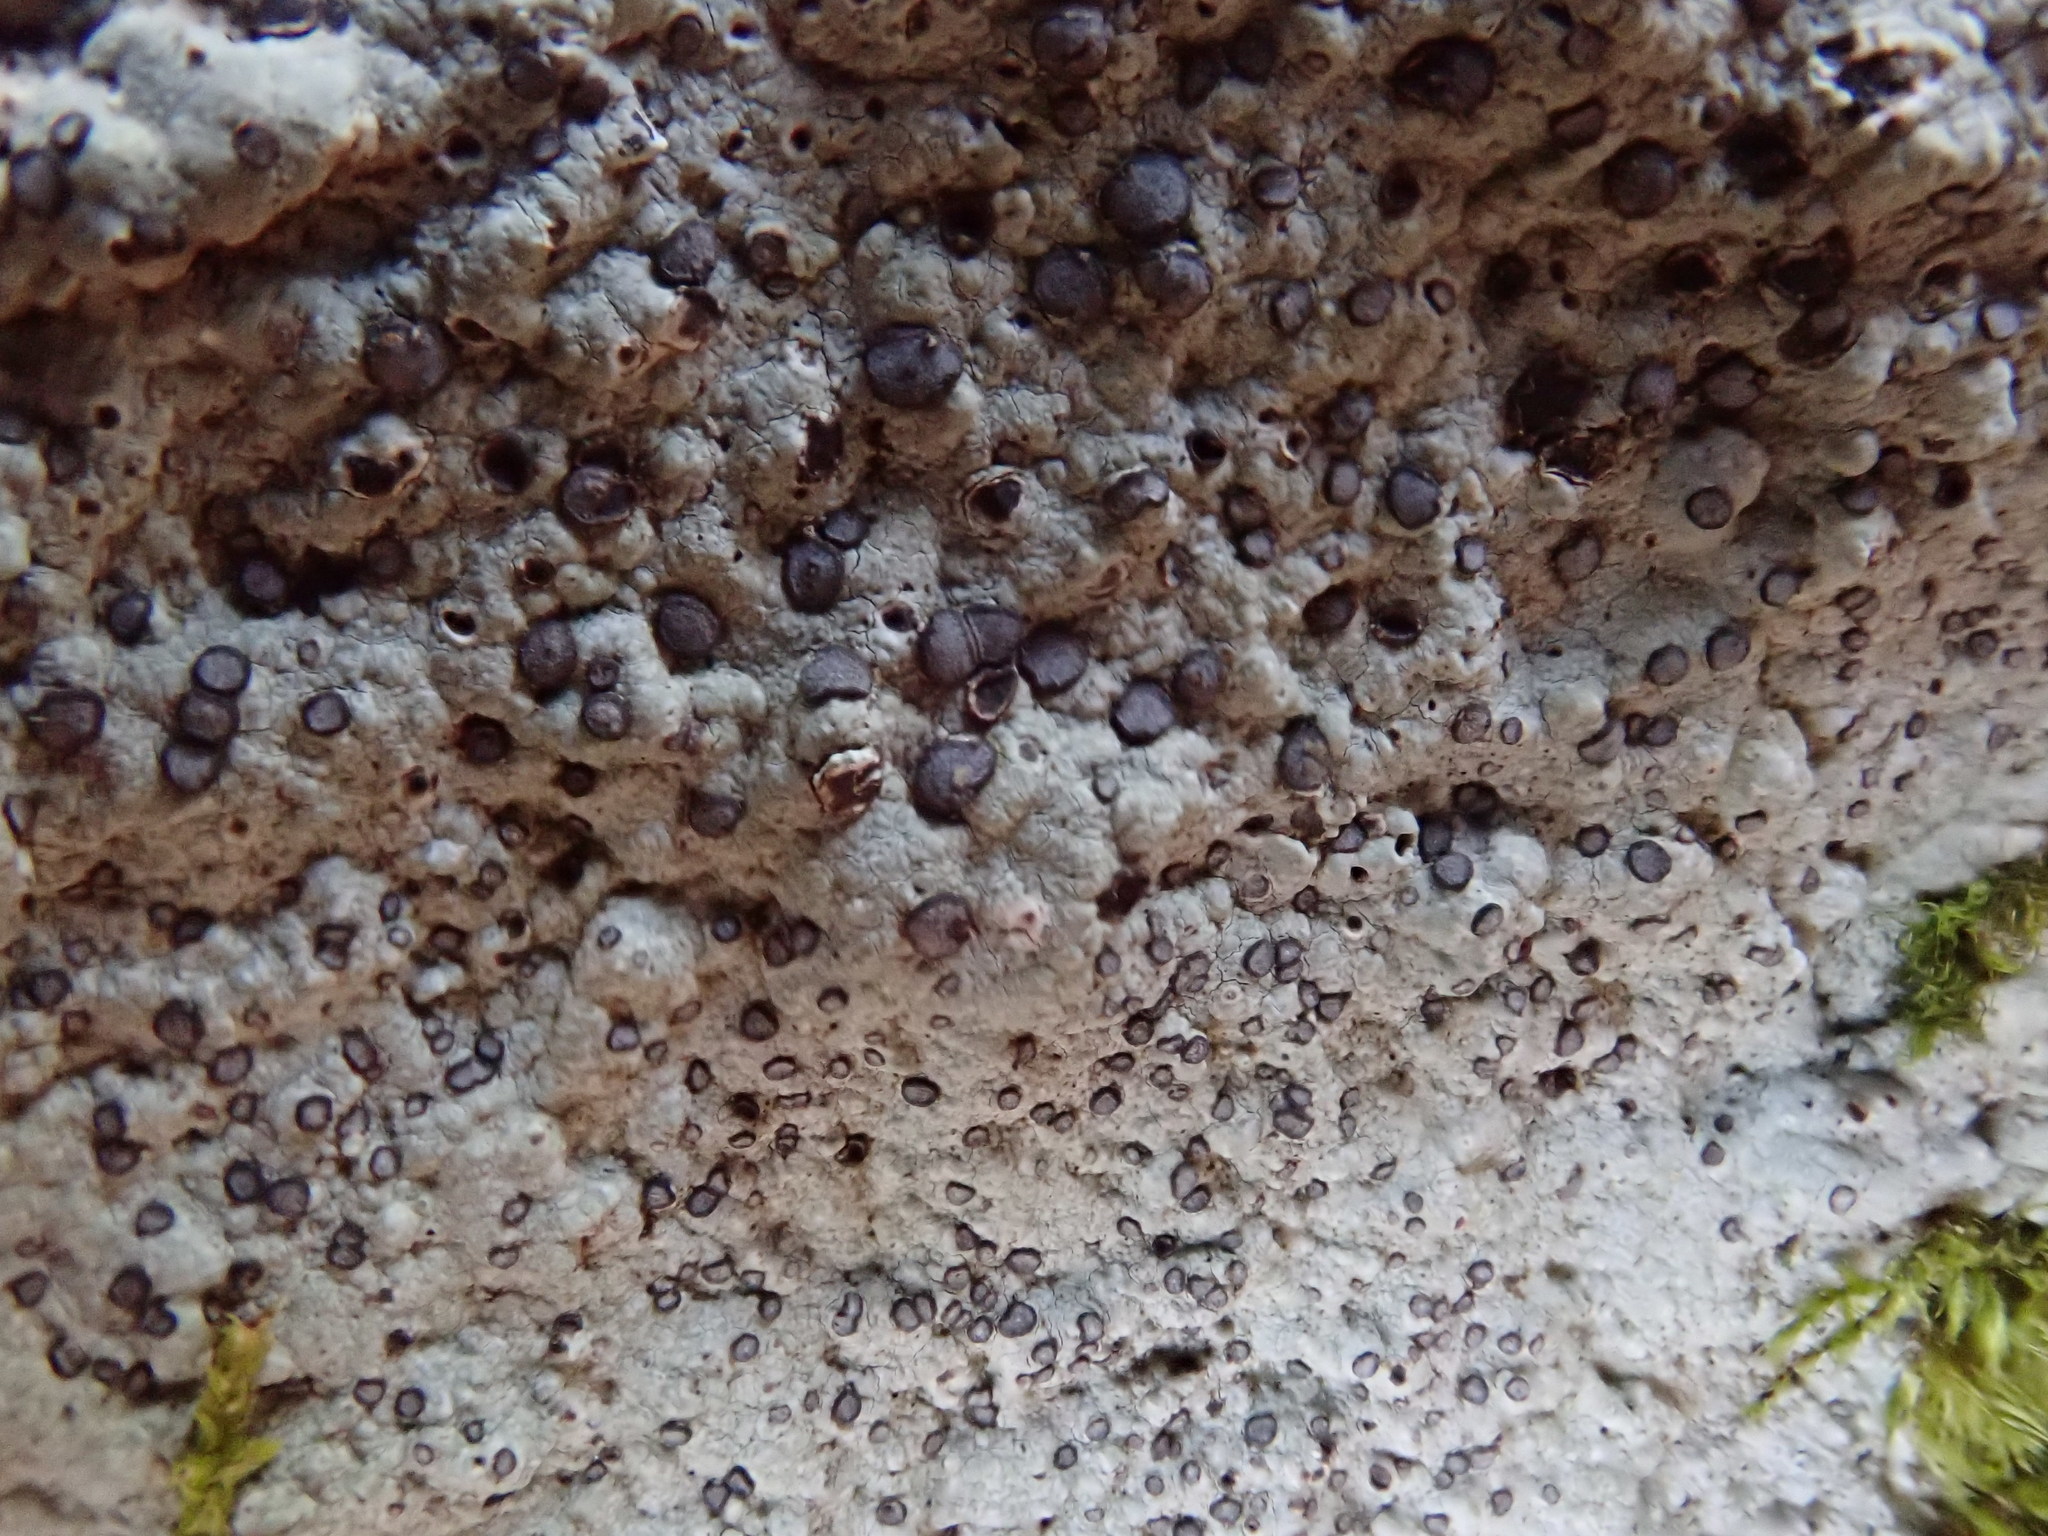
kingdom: Fungi
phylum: Ascomycota
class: Lecanoromycetes
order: Lecideales
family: Lecideaceae
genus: Porpidia
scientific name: Porpidia albocaerulescens
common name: Smokey-eyed boulder lichen
